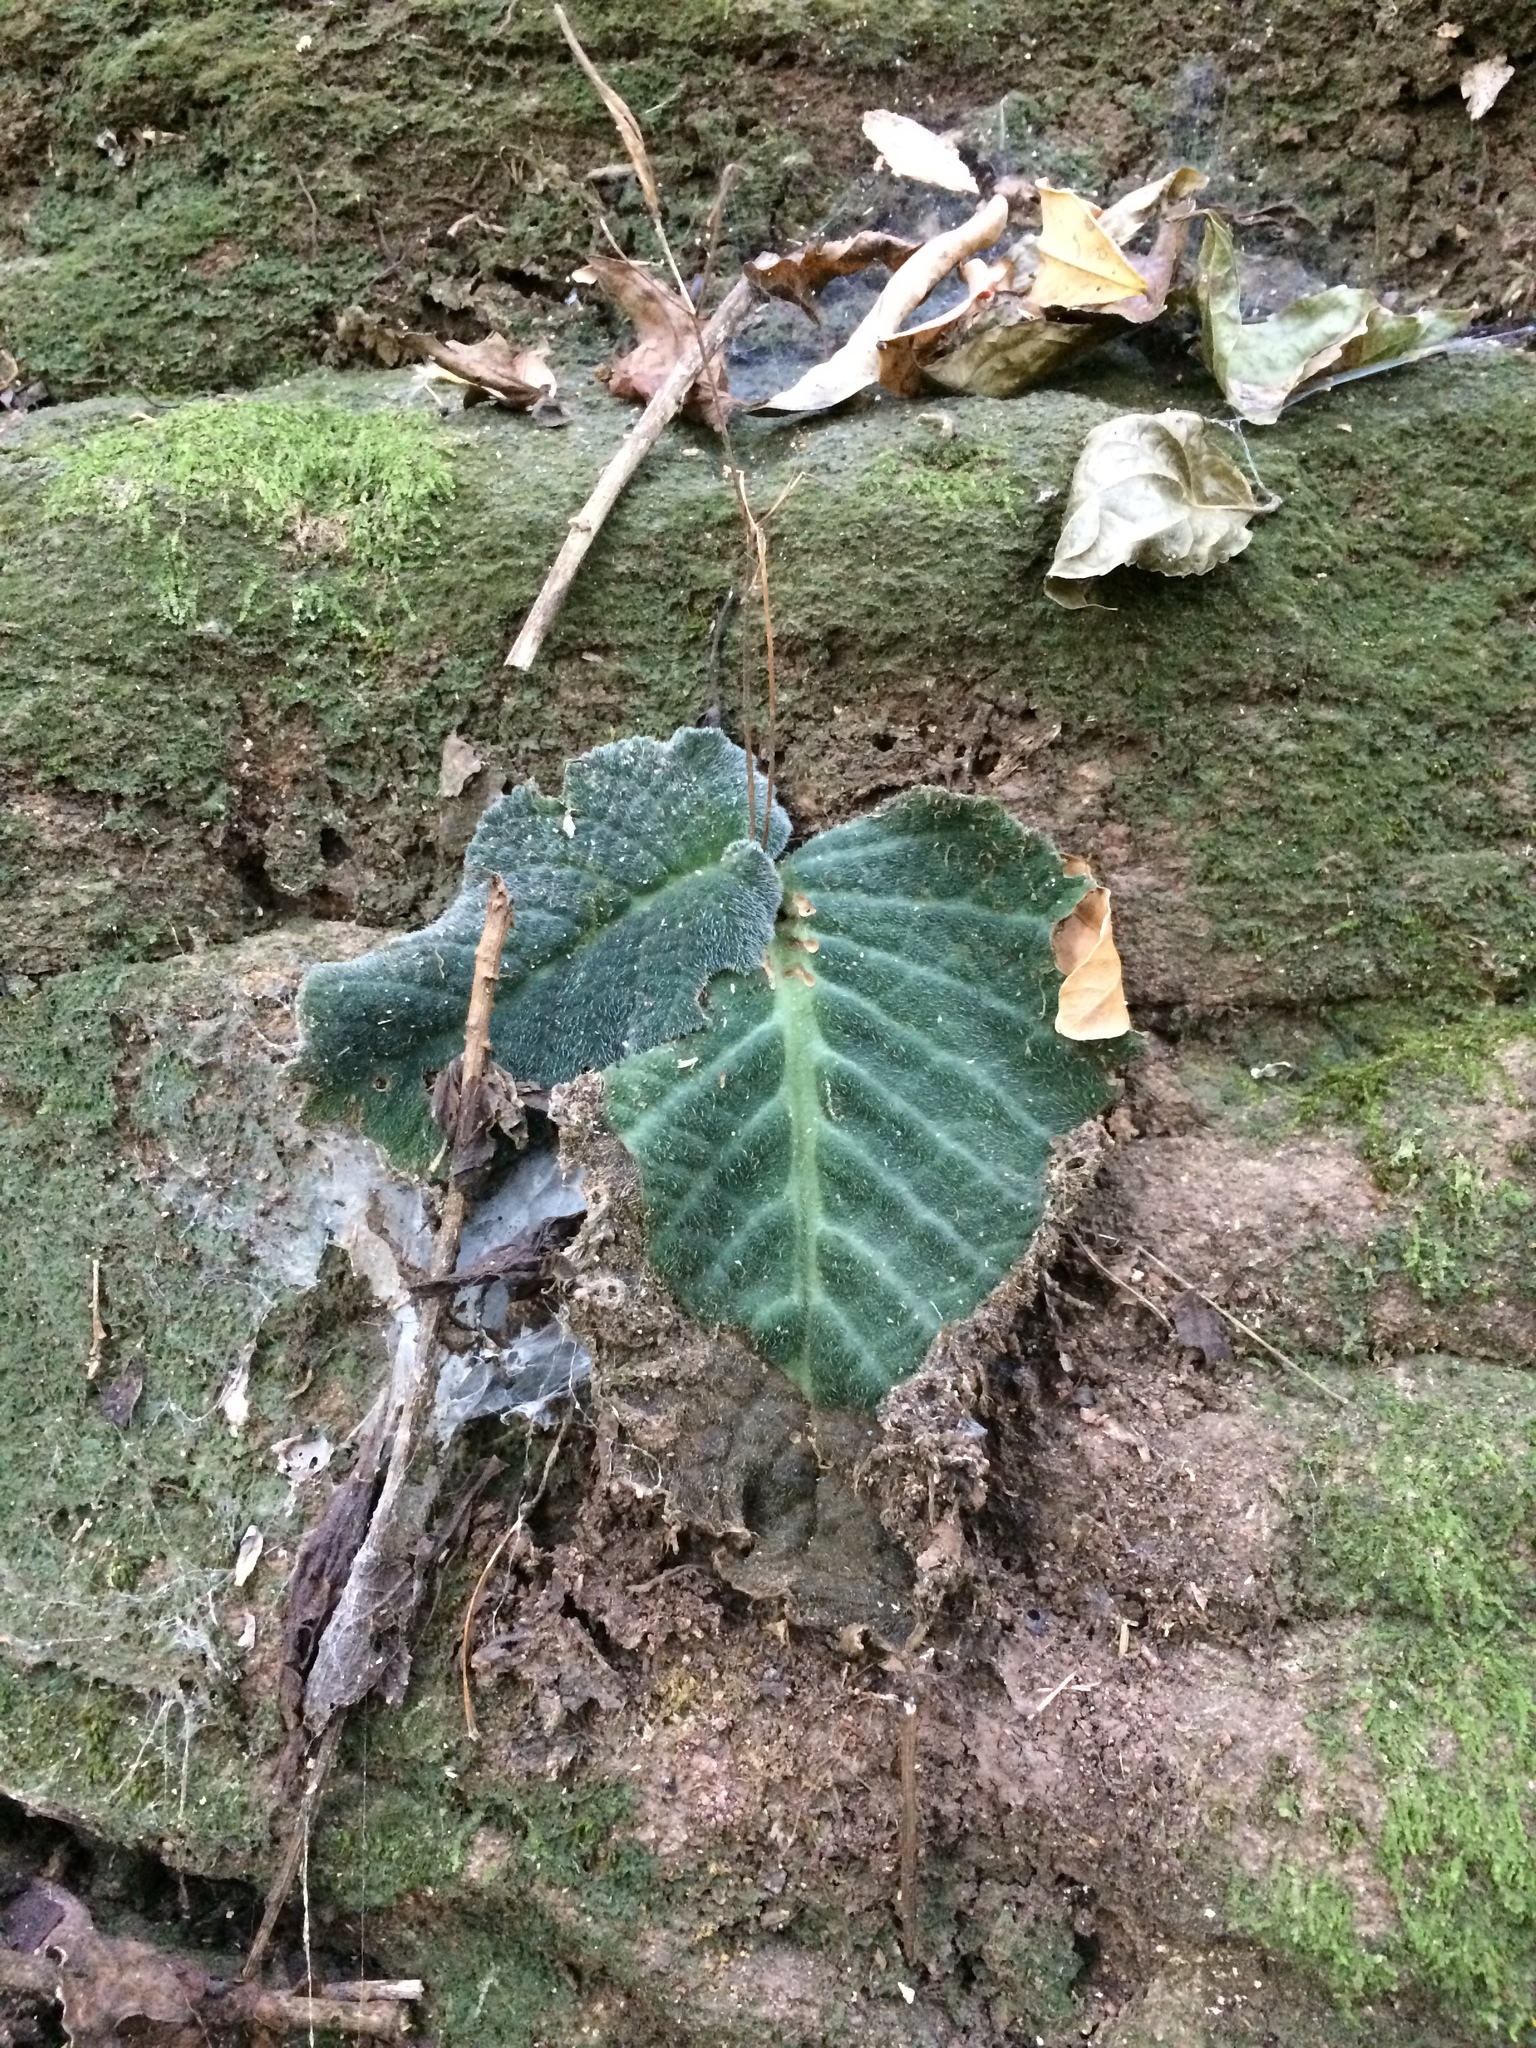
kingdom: Plantae
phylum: Tracheophyta
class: Magnoliopsida
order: Lamiales
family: Gesneriaceae
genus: Streptocarpus
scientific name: Streptocarpus prolixus
